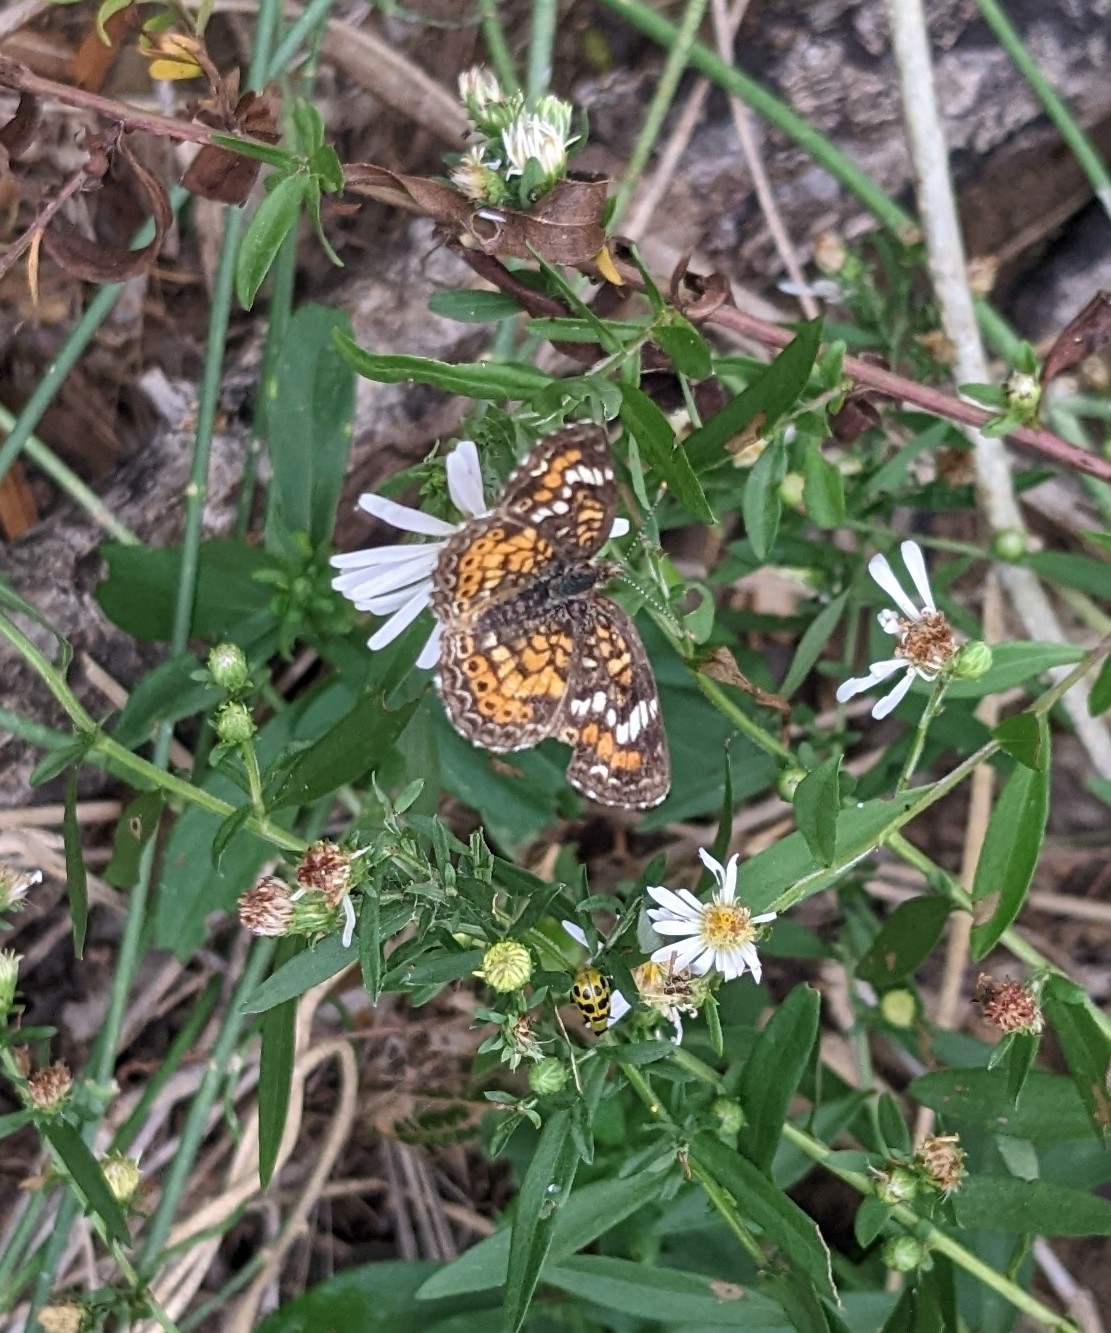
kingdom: Animalia
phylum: Arthropoda
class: Insecta
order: Lepidoptera
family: Nymphalidae
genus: Phyciodes
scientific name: Phyciodes phaon
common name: Phaon crescent
